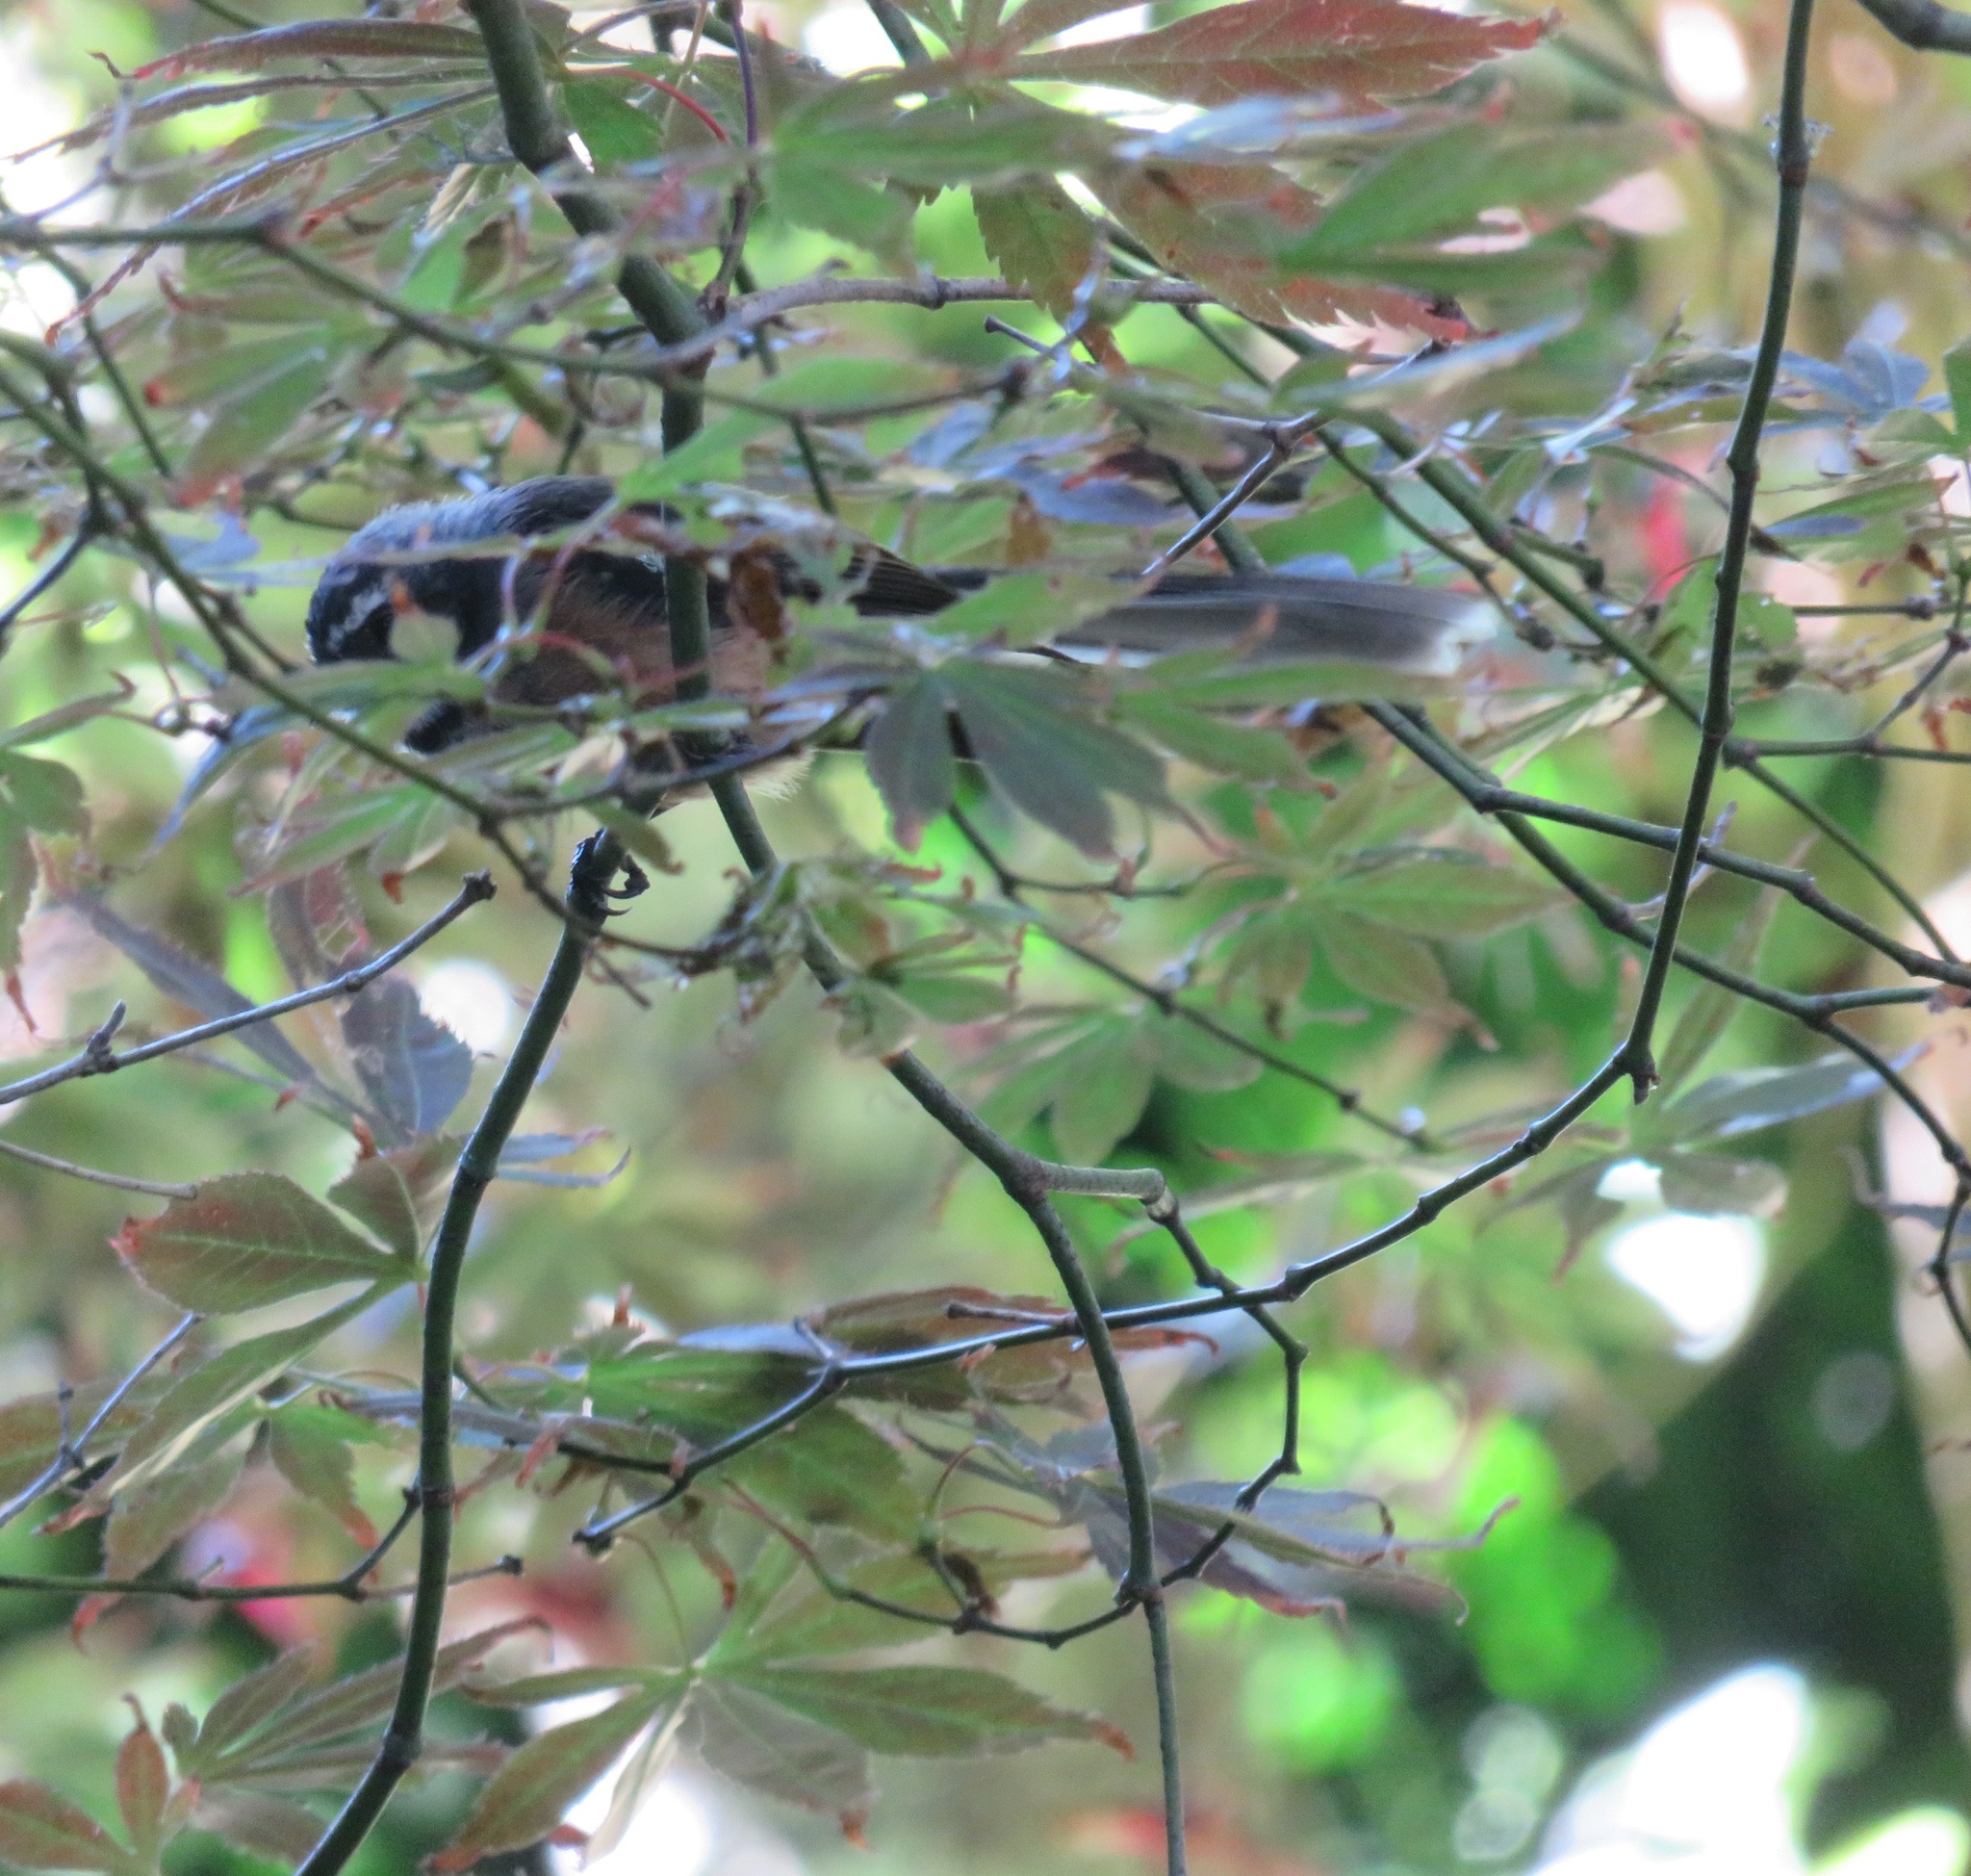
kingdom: Animalia
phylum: Chordata
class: Aves
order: Passeriformes
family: Rhipiduridae
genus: Rhipidura
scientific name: Rhipidura fuliginosa
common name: New zealand fantail
